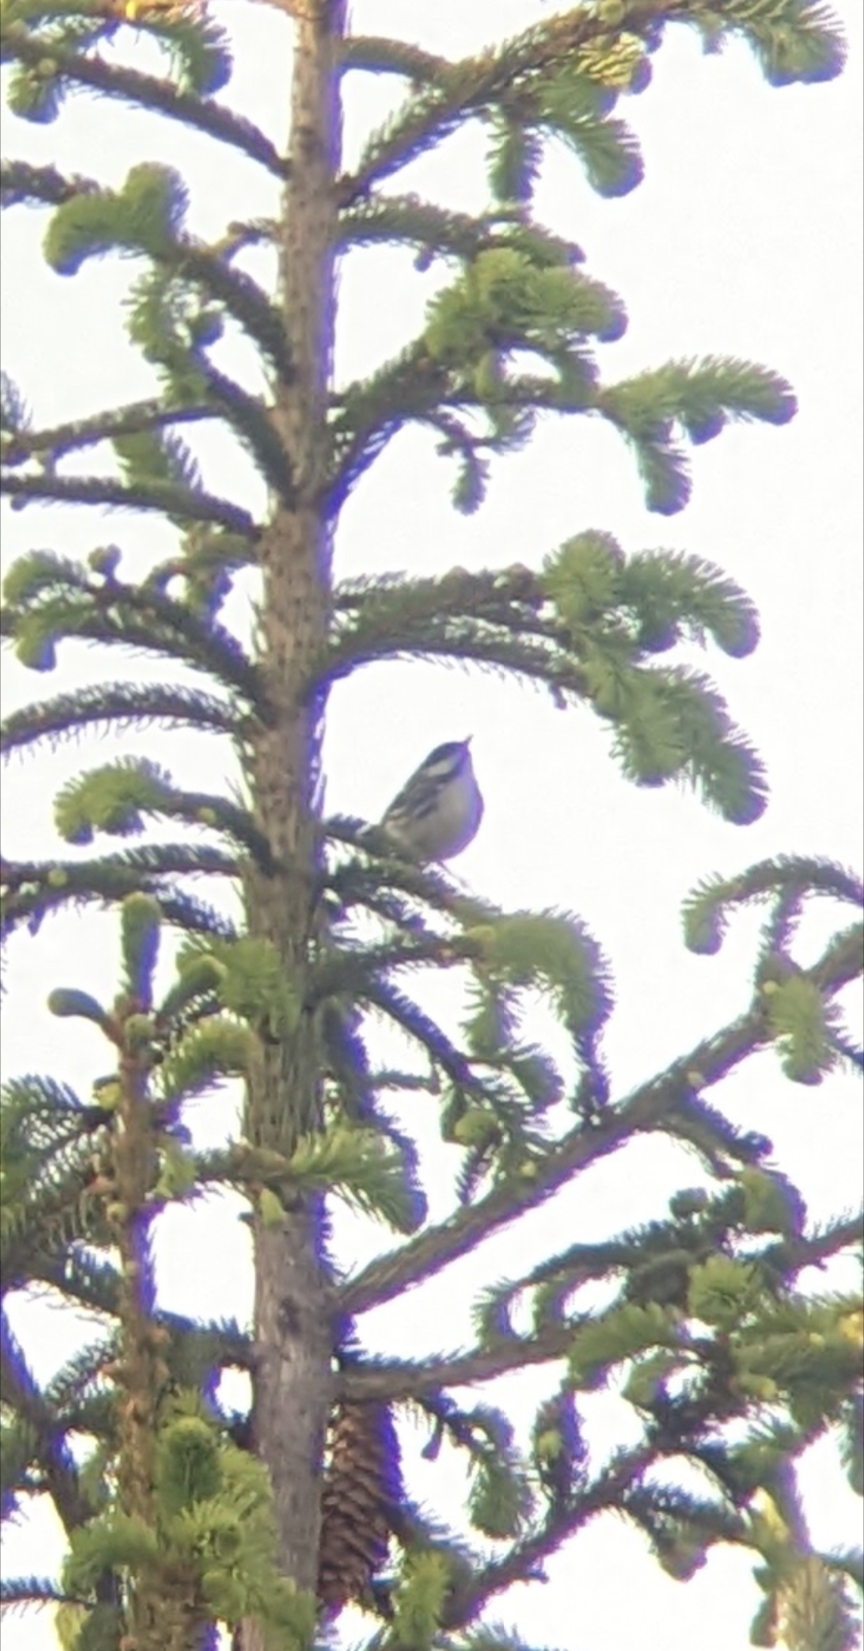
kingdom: Animalia
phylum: Chordata
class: Aves
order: Passeriformes
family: Parulidae
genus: Setophaga
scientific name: Setophaga striata
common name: Blackpoll warbler
